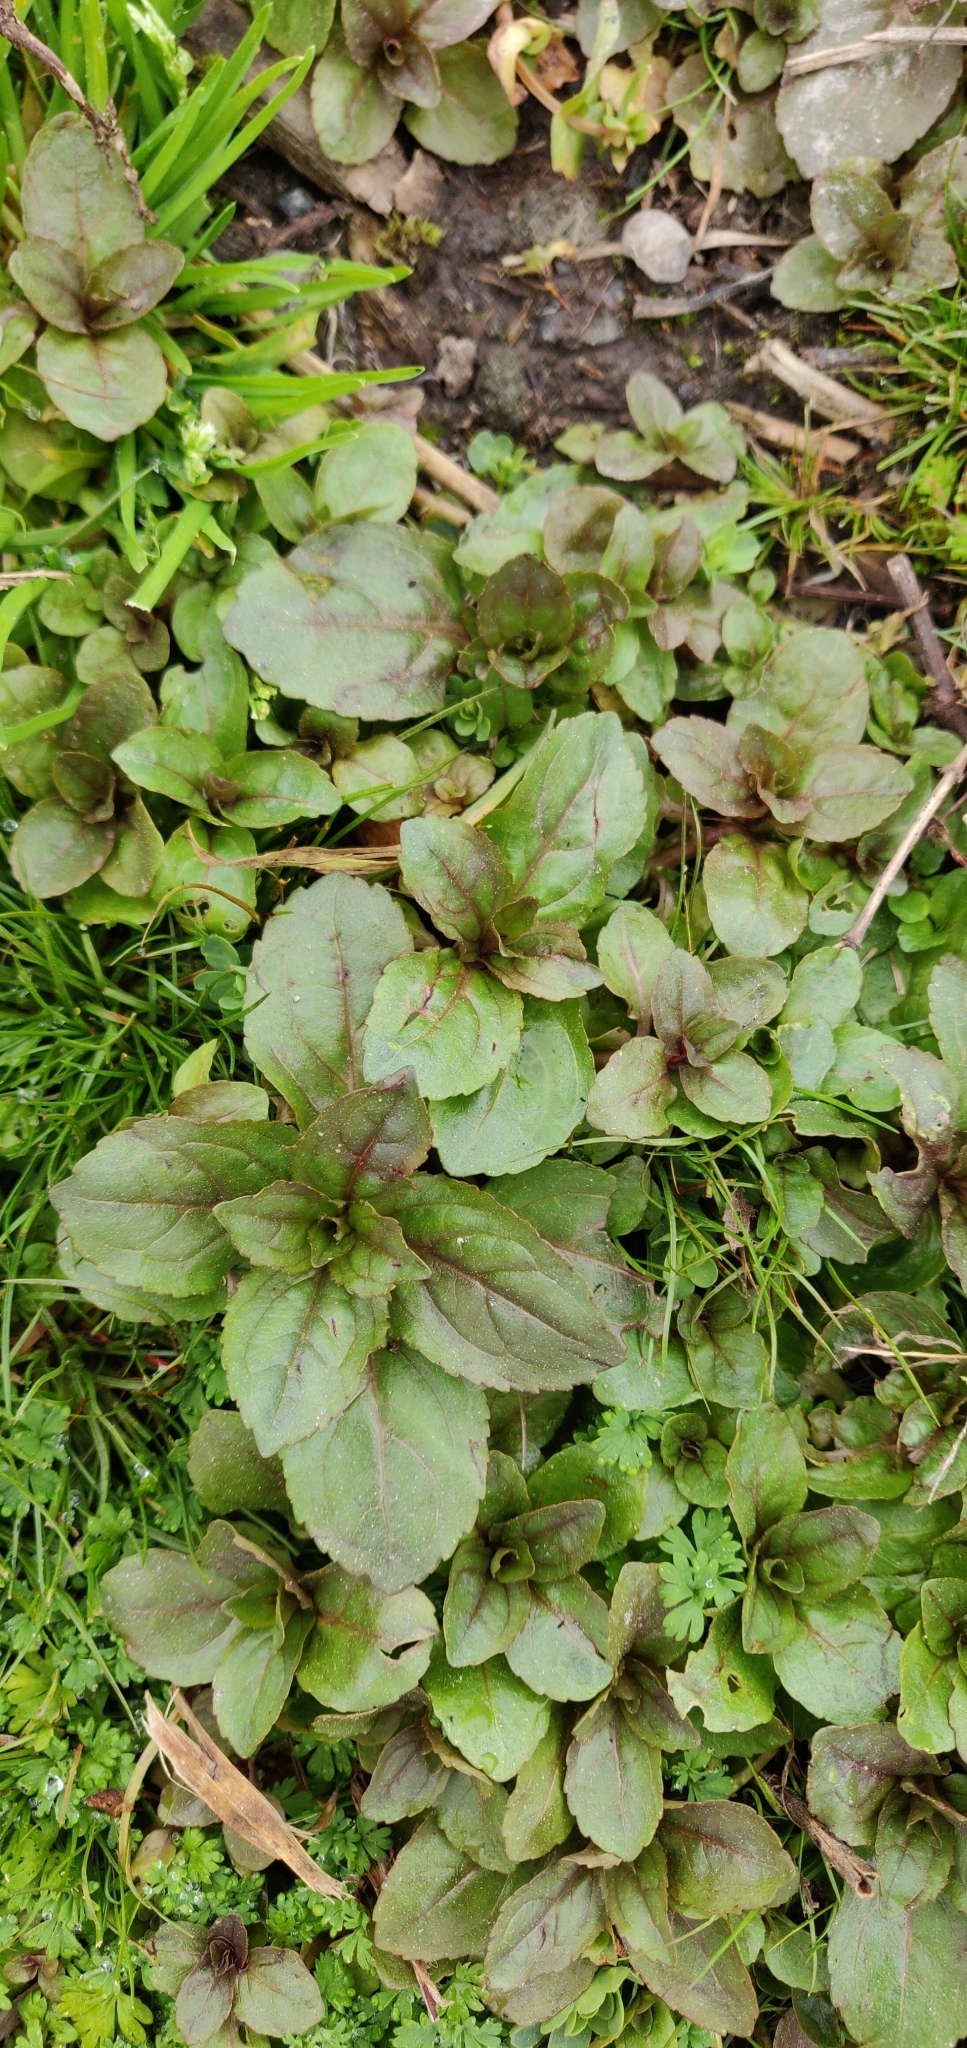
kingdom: Plantae
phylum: Tracheophyta
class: Magnoliopsida
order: Lamiales
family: Phrymaceae
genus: Erythranthe
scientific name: Erythranthe guttata
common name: Monkeyflower
